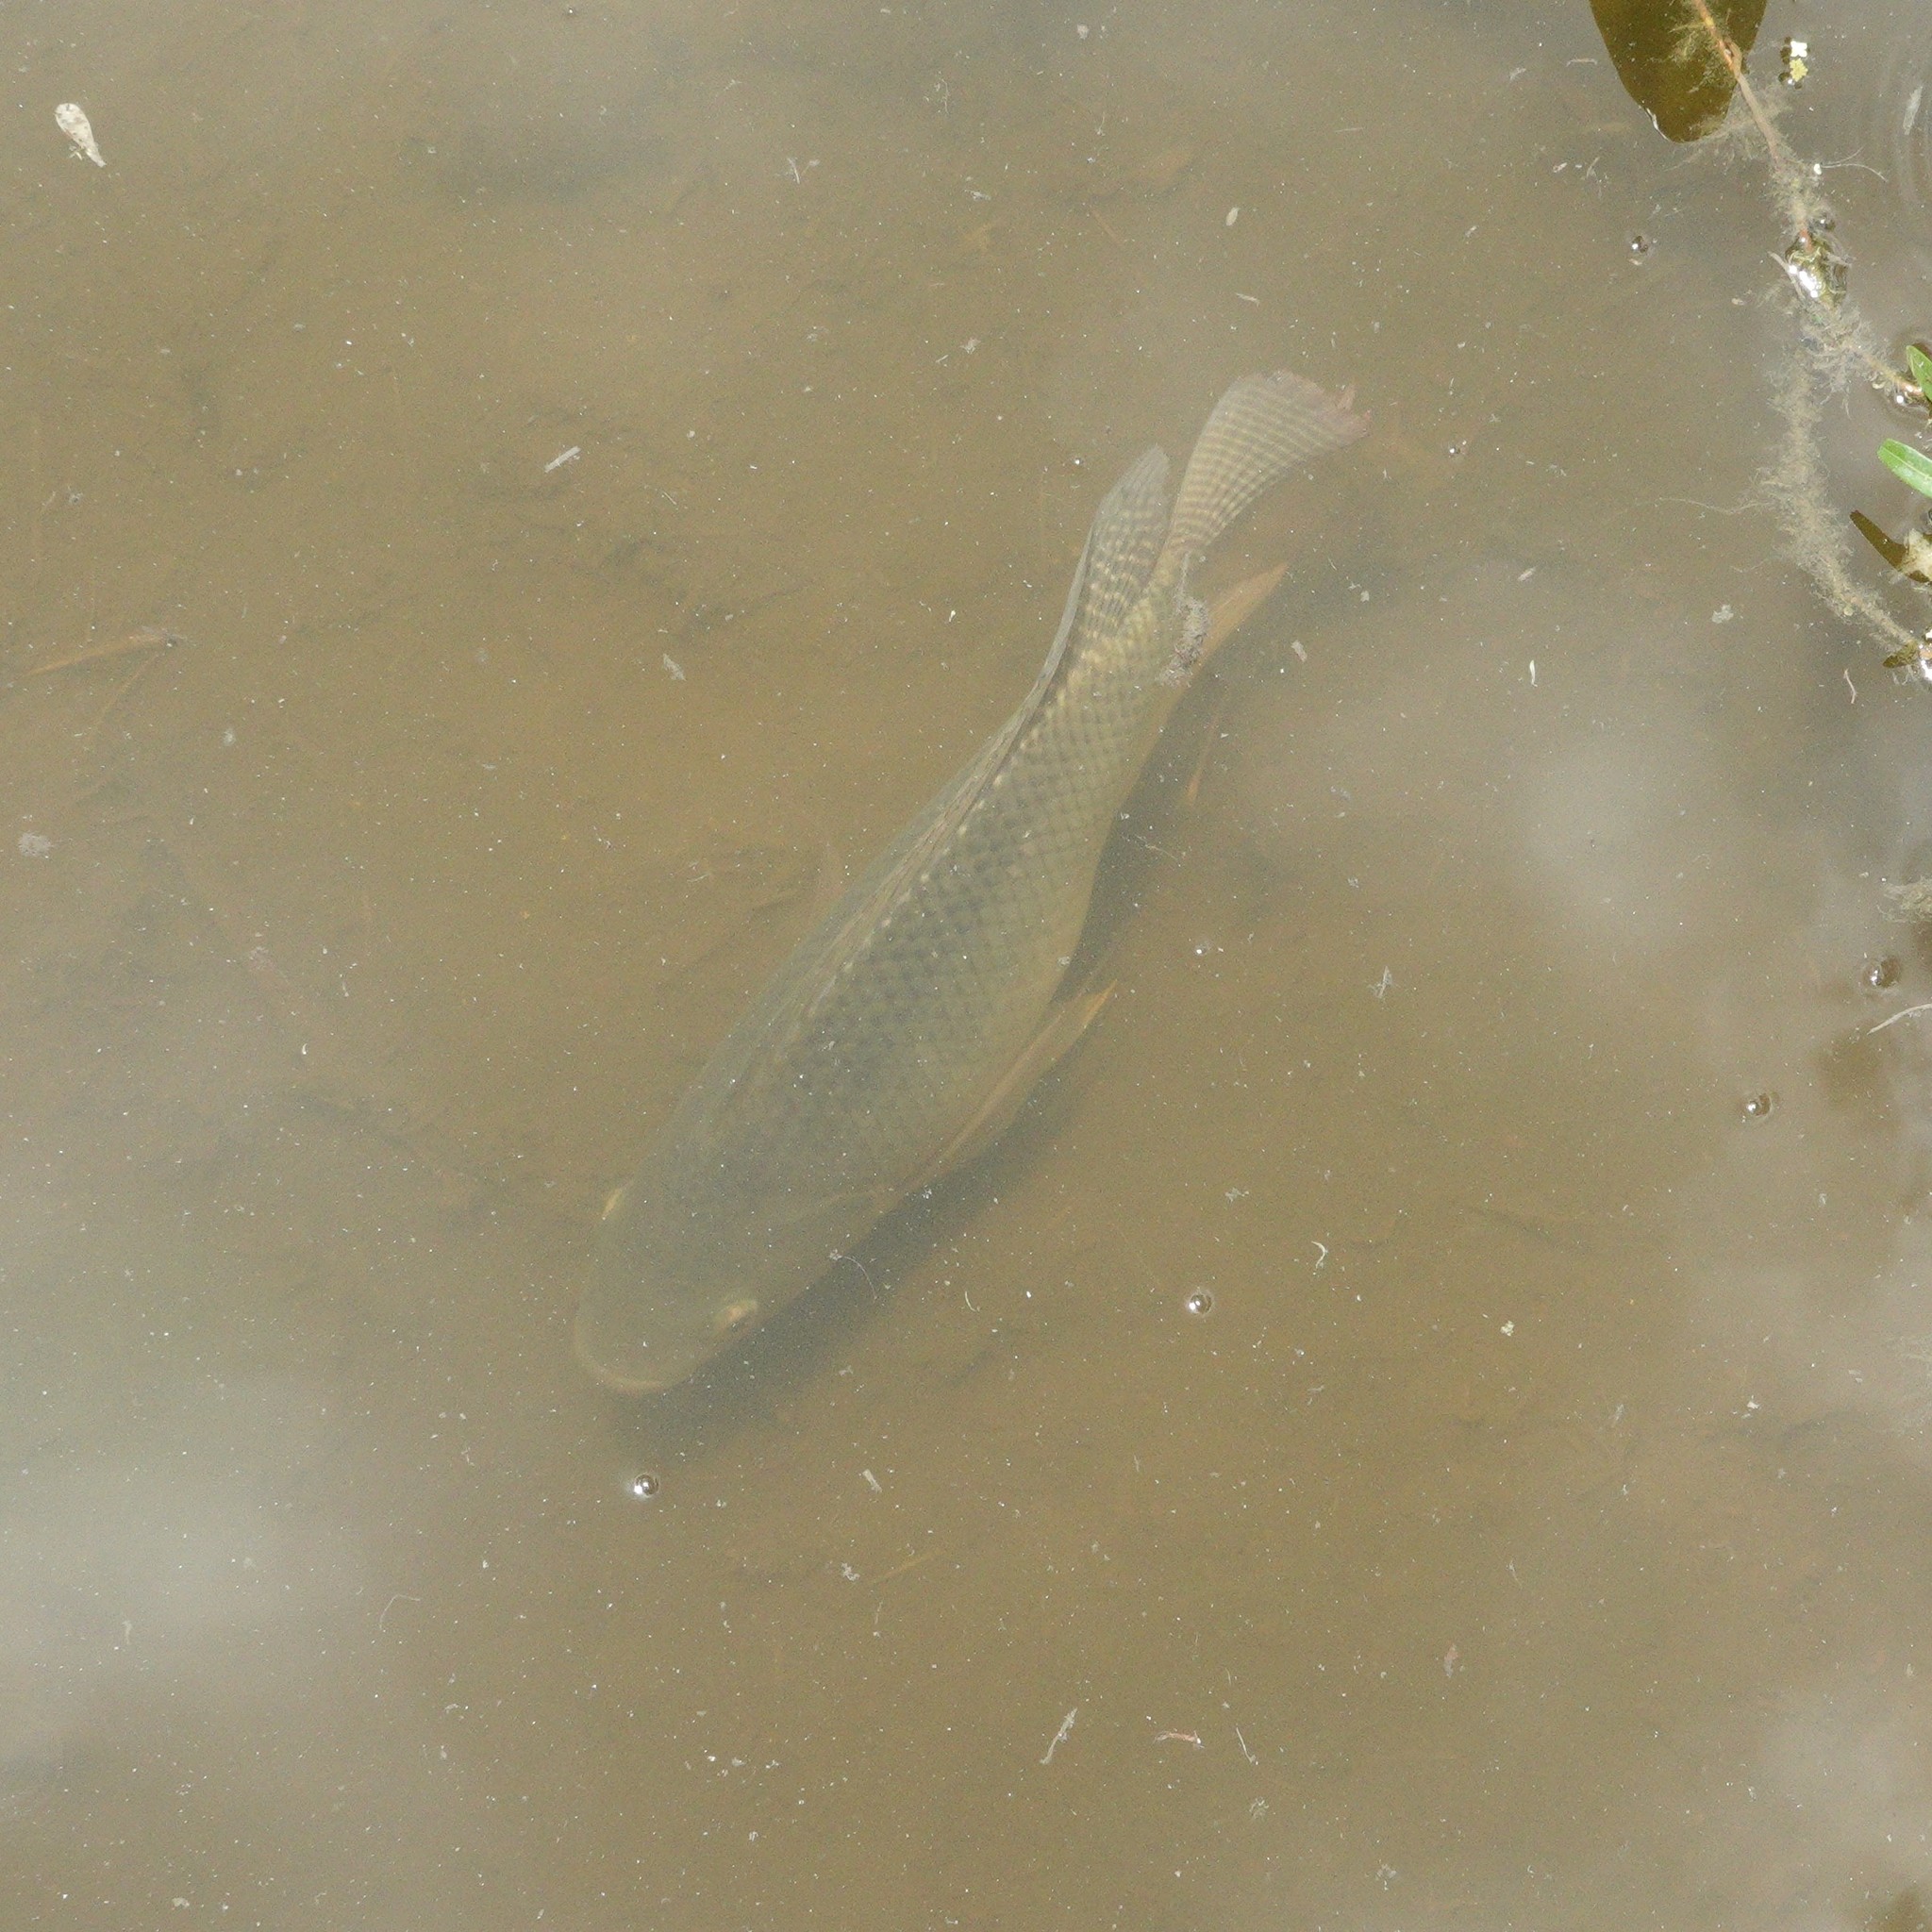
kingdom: Animalia
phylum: Chordata
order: Perciformes
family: Cichlidae
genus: Oreochromis
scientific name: Oreochromis niloticus
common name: Nile tilapia
